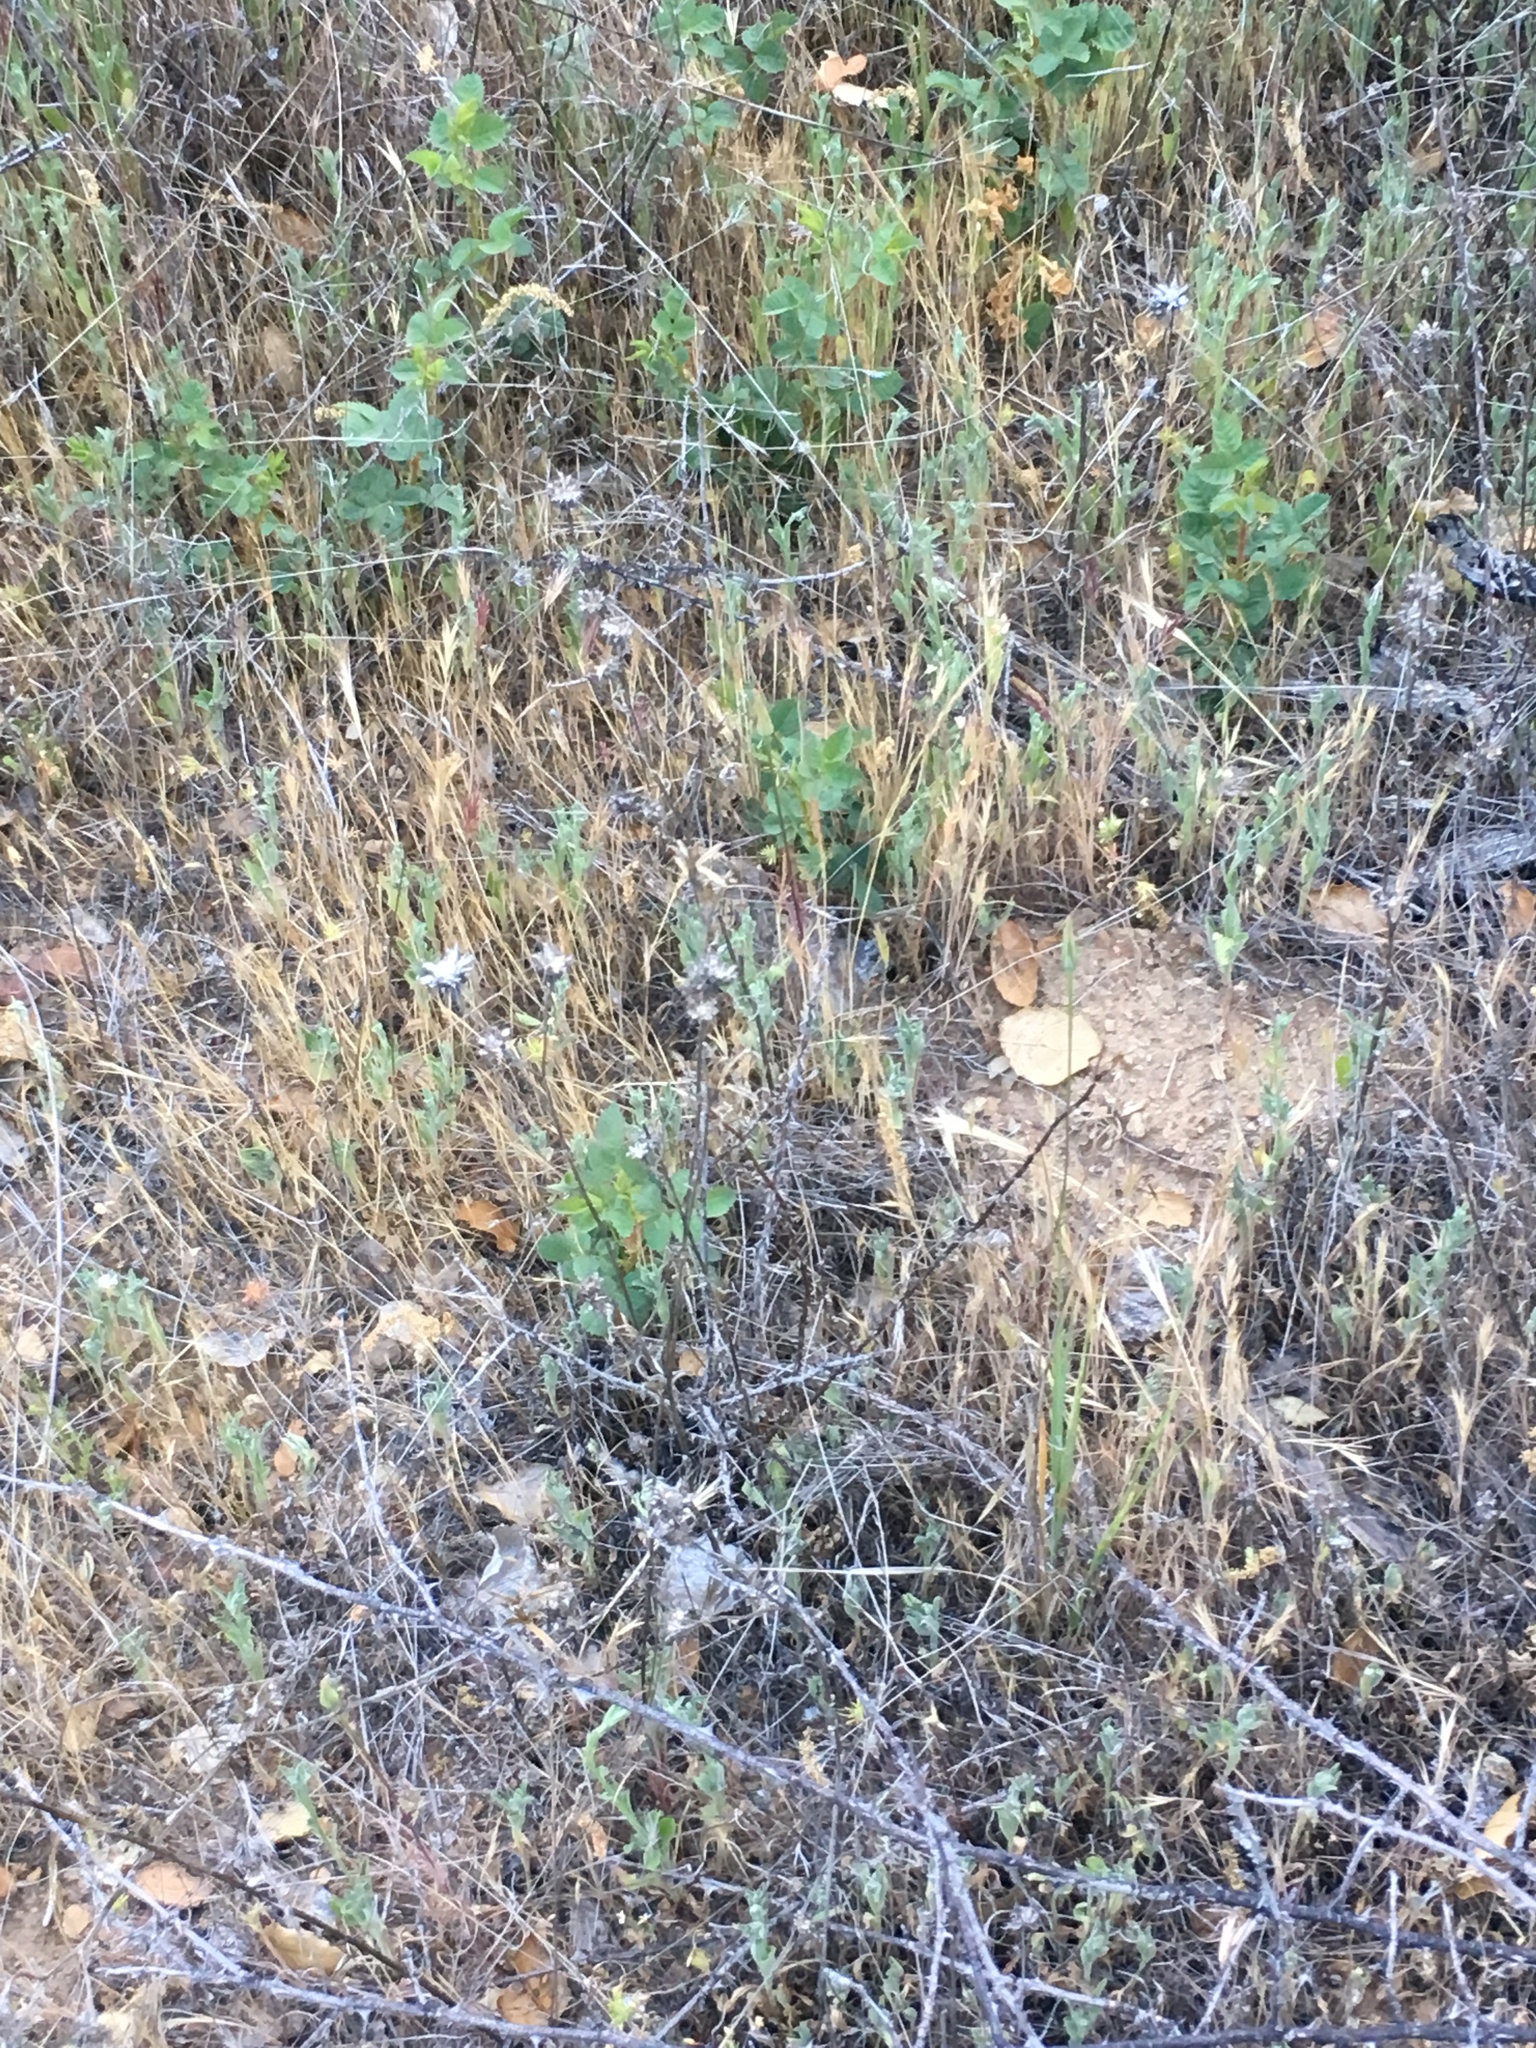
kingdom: Plantae
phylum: Tracheophyta
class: Magnoliopsida
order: Asterales
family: Asteraceae
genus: Centaurea
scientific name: Centaurea melitensis
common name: Maltese star-thistle
